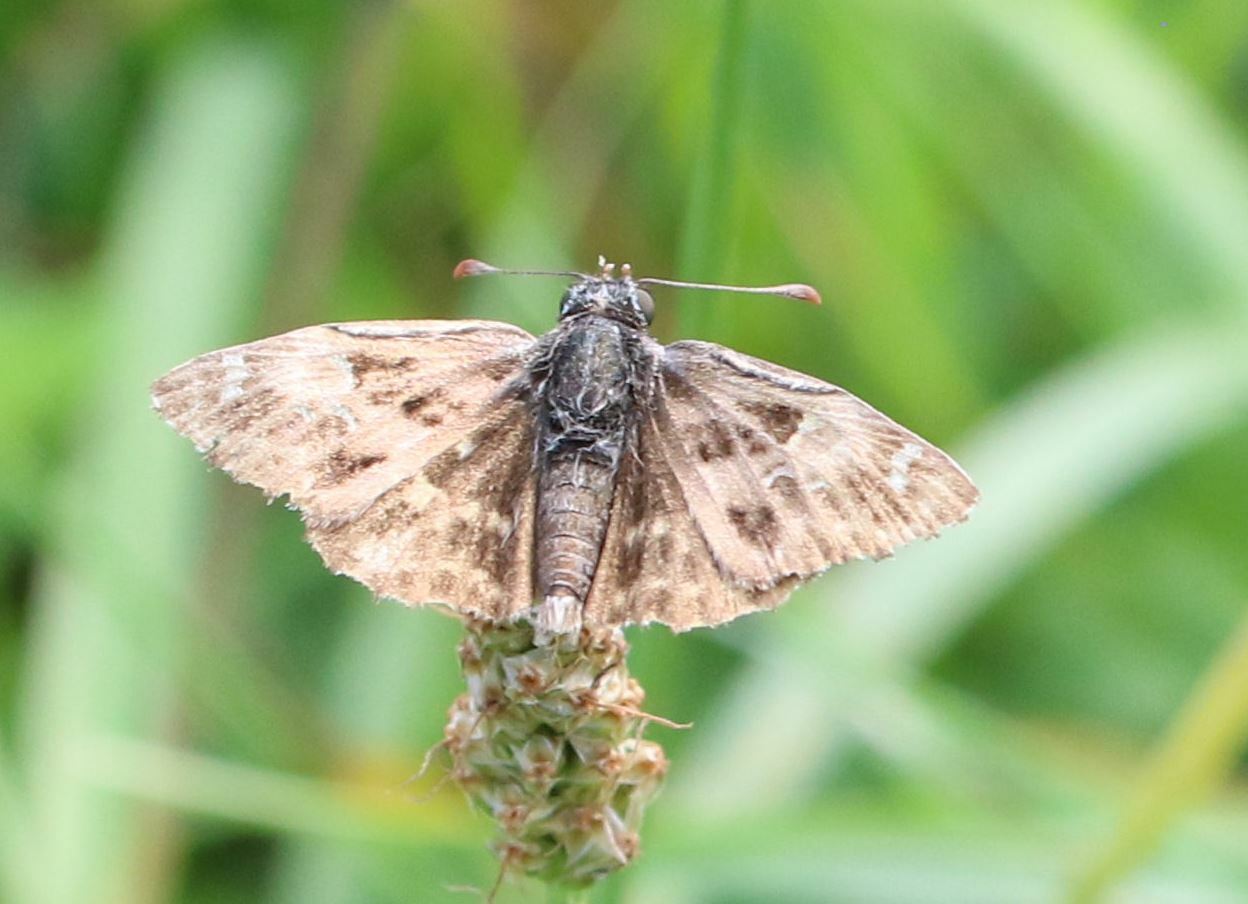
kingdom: Animalia
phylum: Arthropoda
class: Insecta
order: Lepidoptera
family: Hesperiidae
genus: Carcharodus
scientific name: Carcharodus alceae
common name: Mallow skipper
